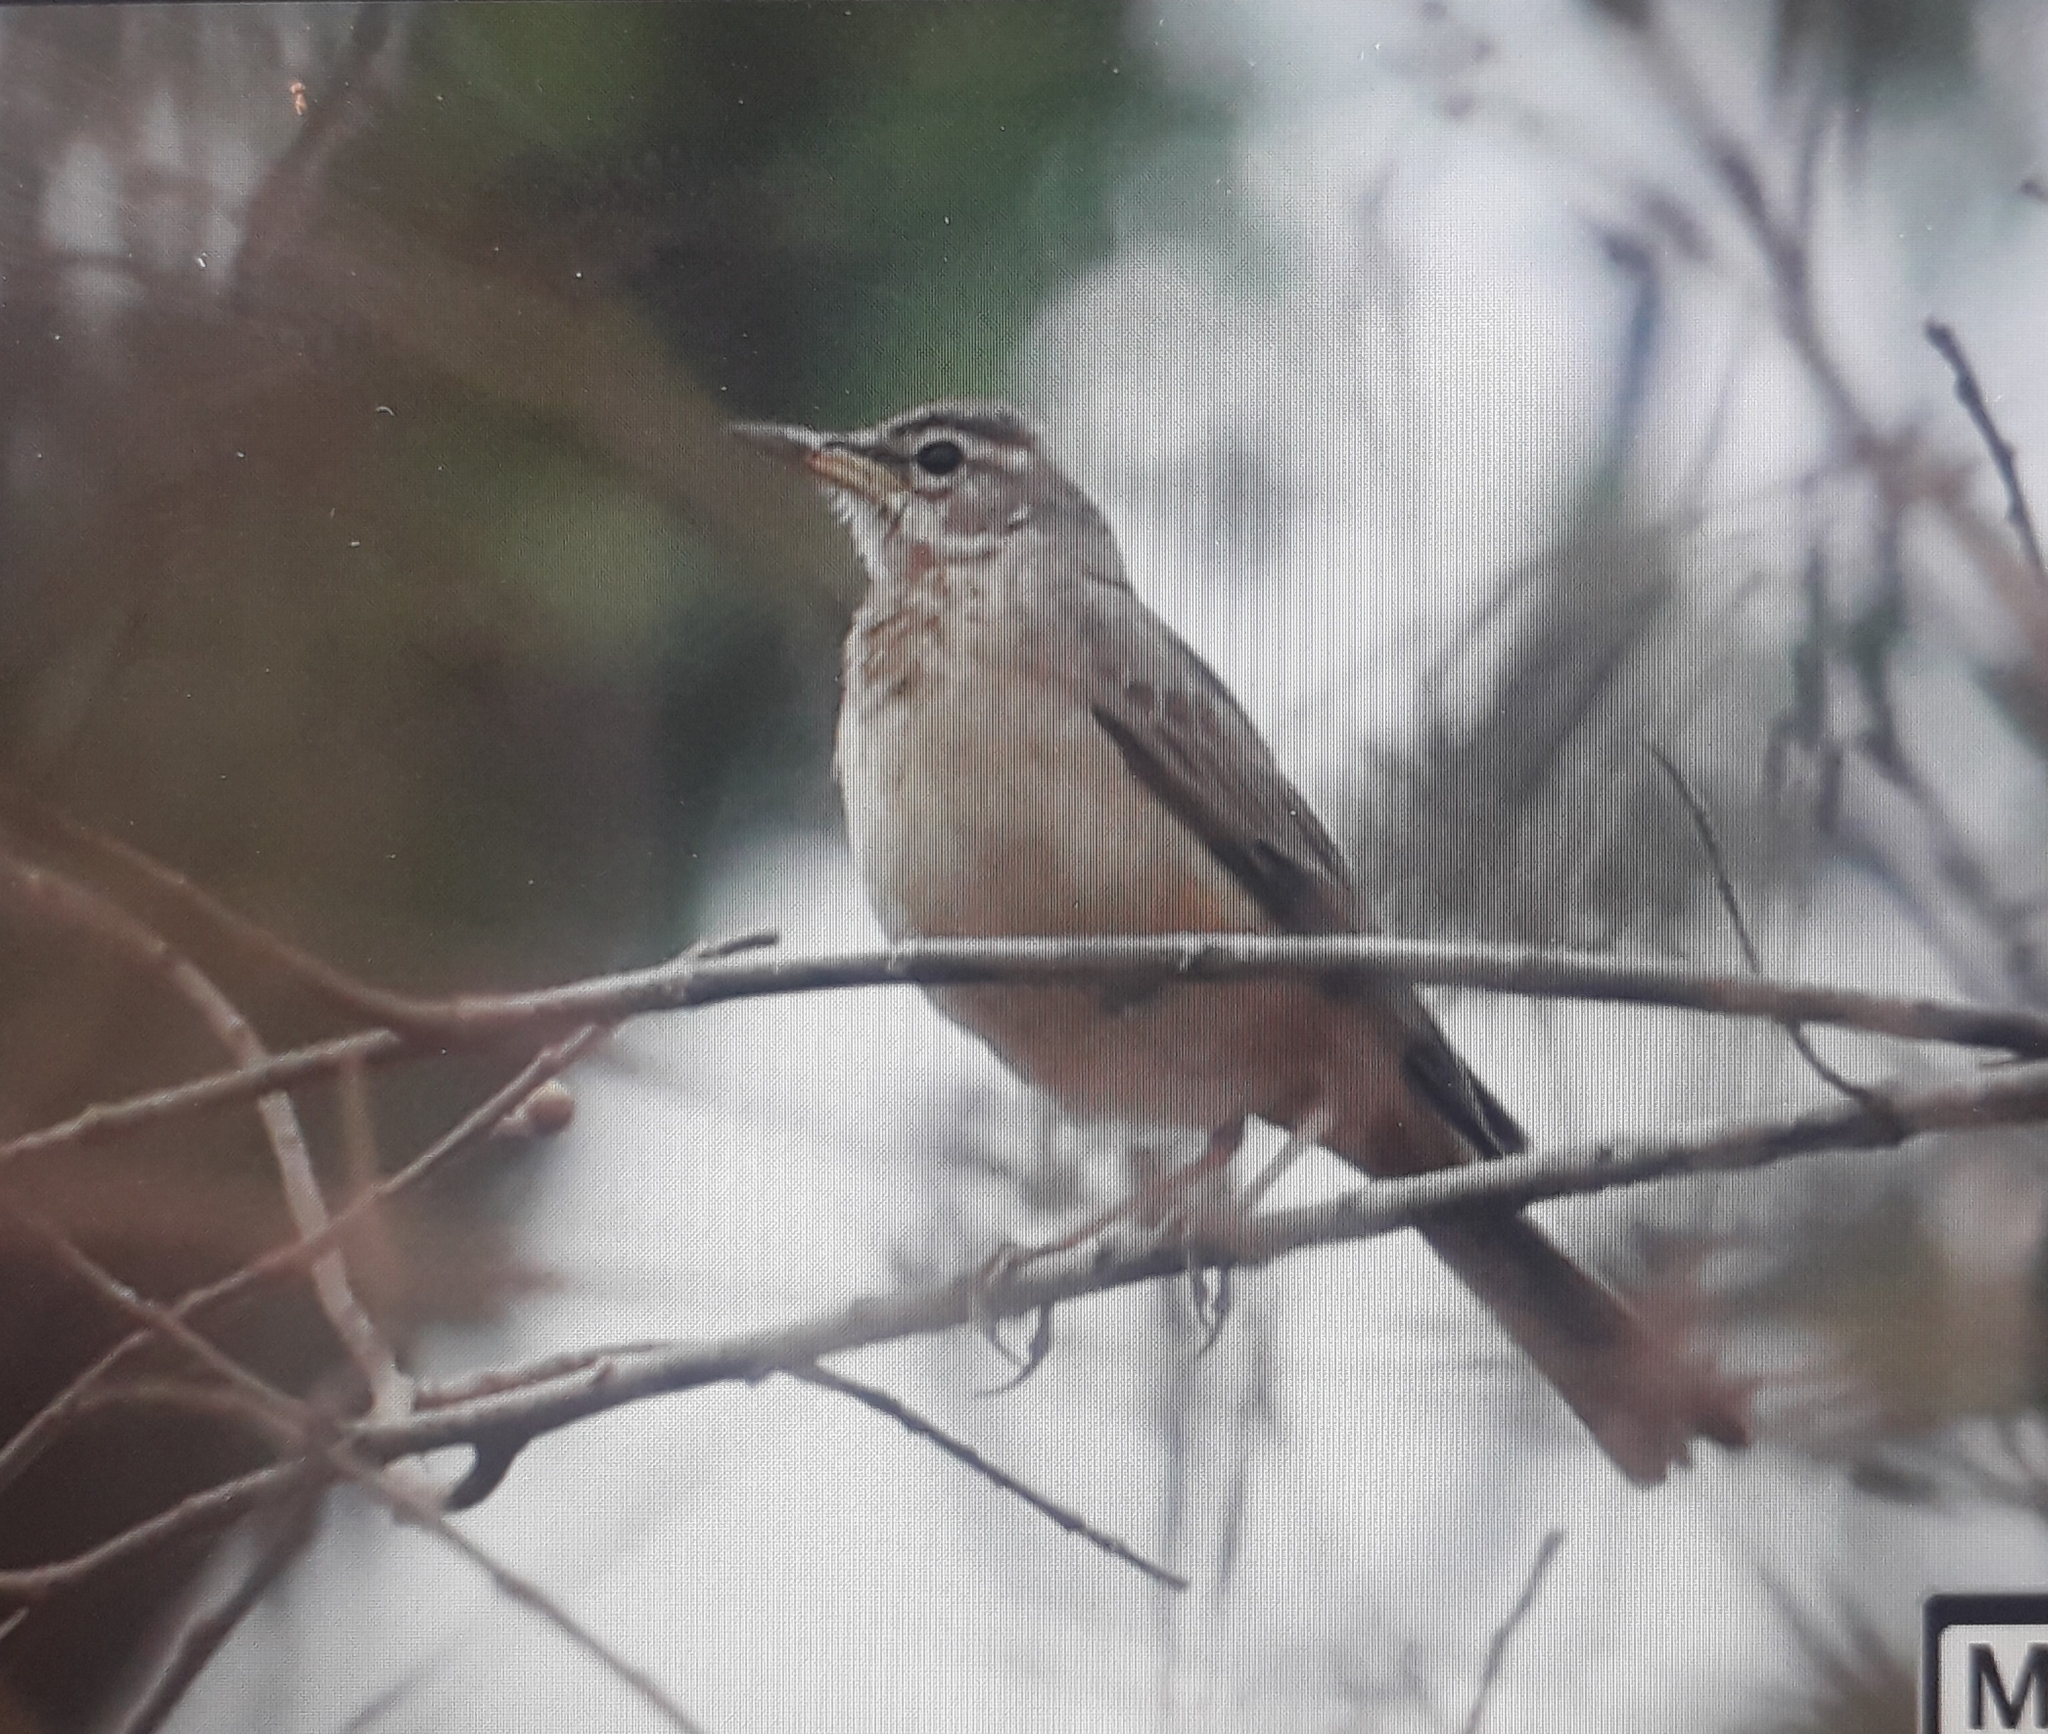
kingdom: Animalia
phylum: Chordata
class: Aves
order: Passeriformes
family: Motacillidae
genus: Anthus
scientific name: Anthus leucophrys
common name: Plain-backed pipit
